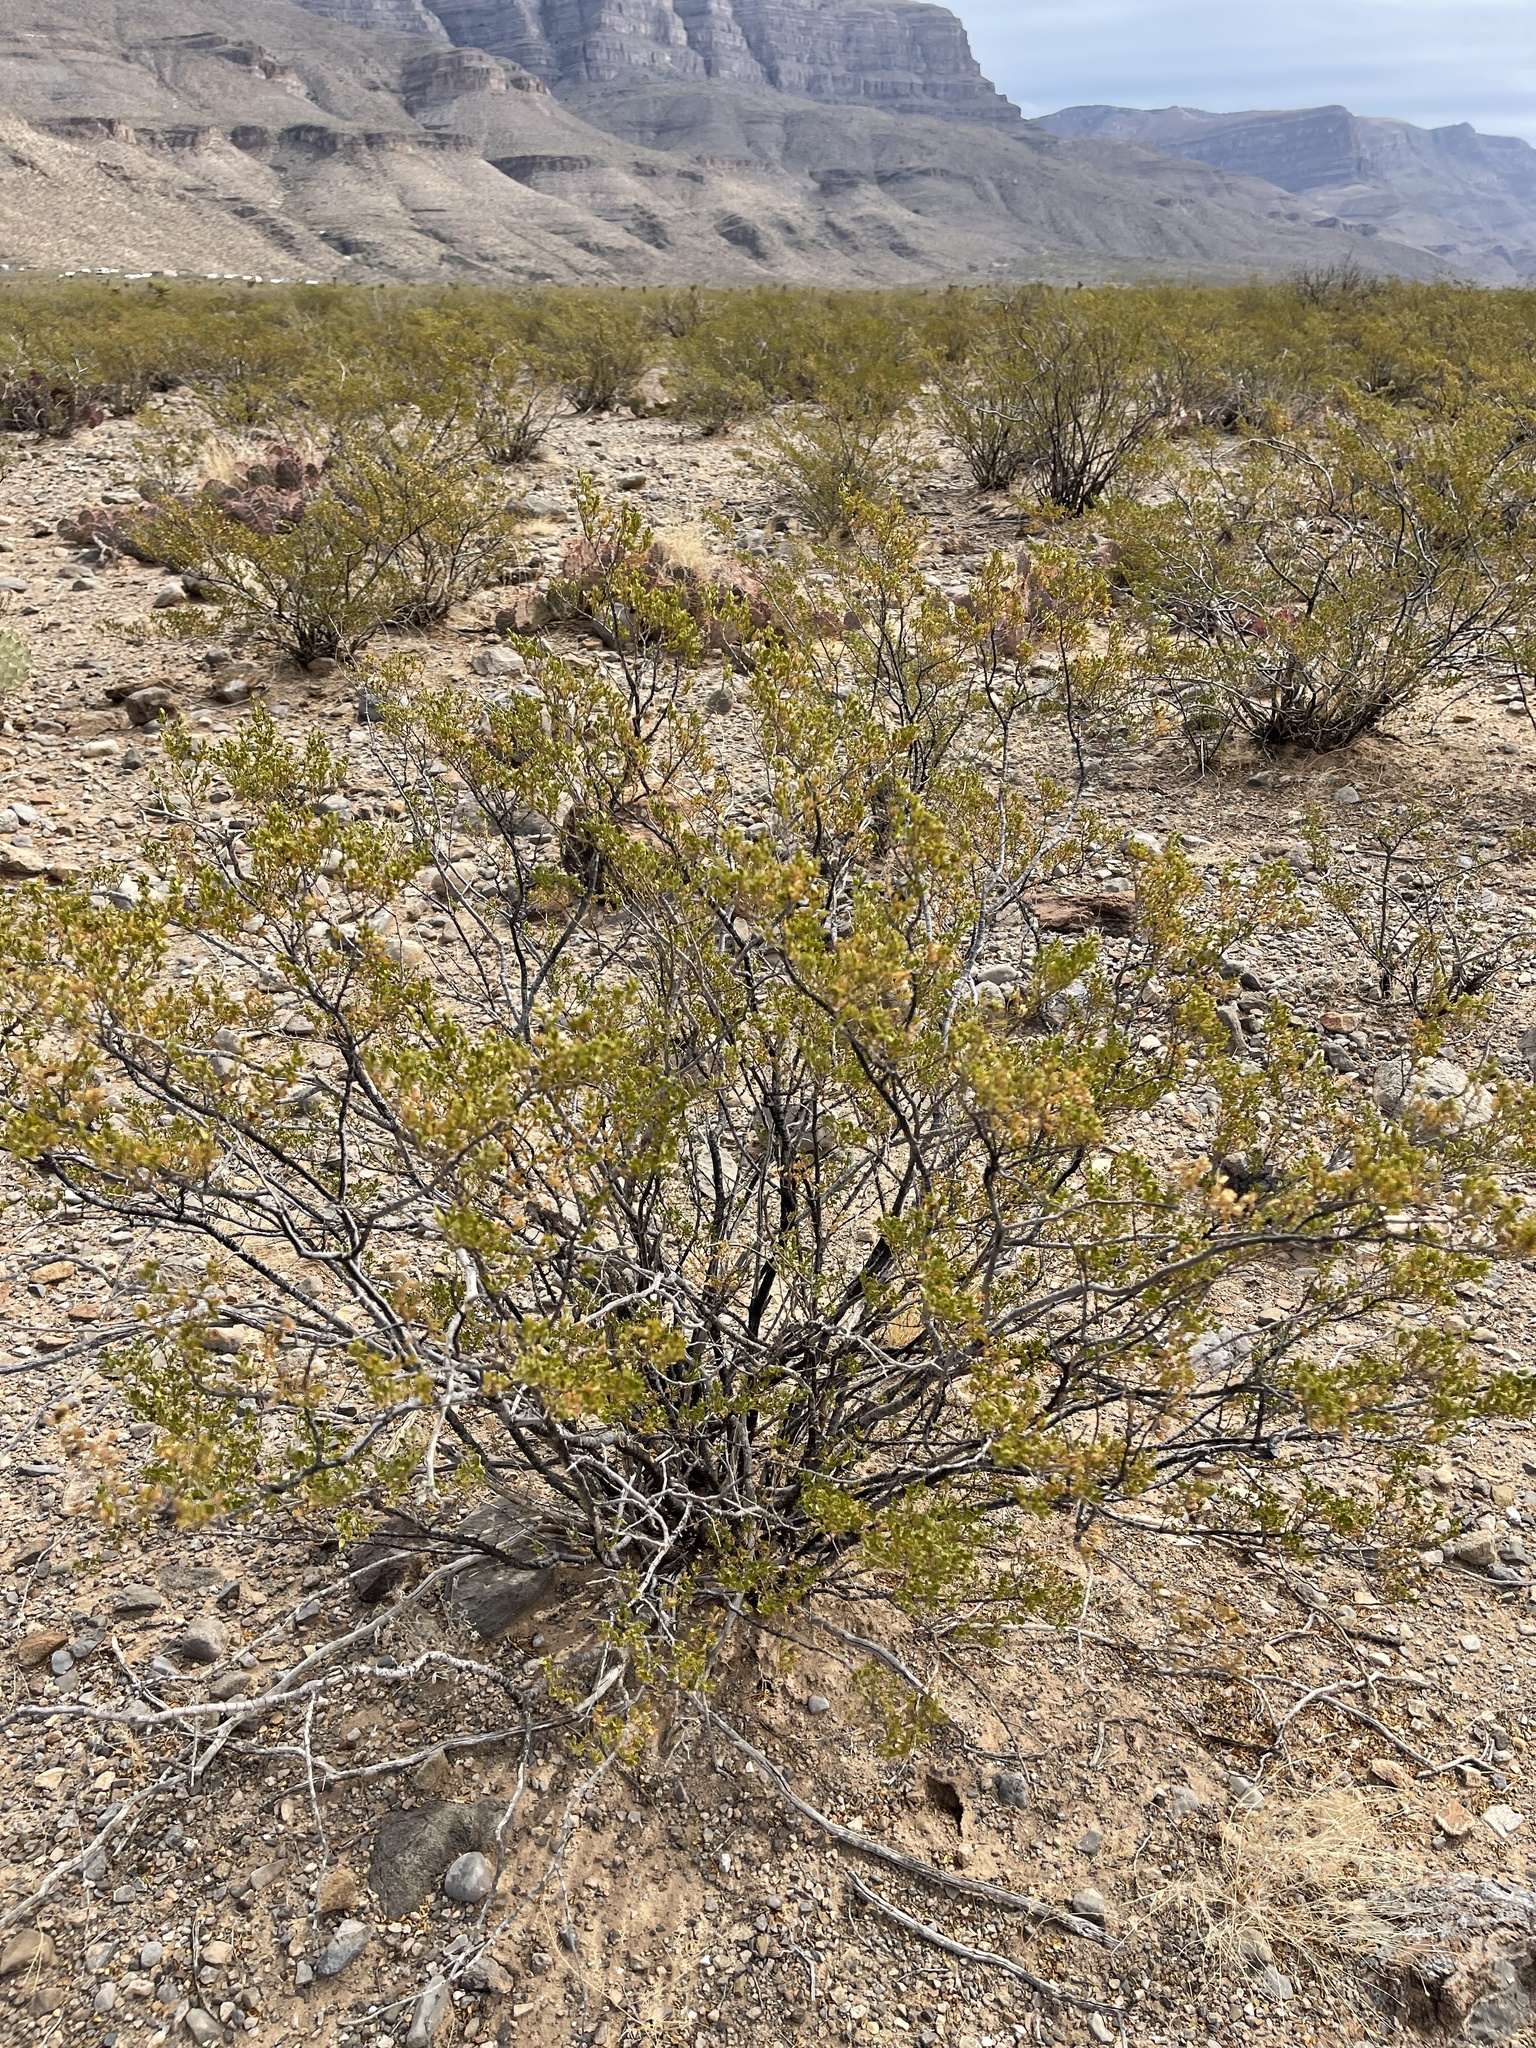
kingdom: Plantae
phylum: Tracheophyta
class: Magnoliopsida
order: Zygophyllales
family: Zygophyllaceae
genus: Larrea
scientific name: Larrea tridentata
